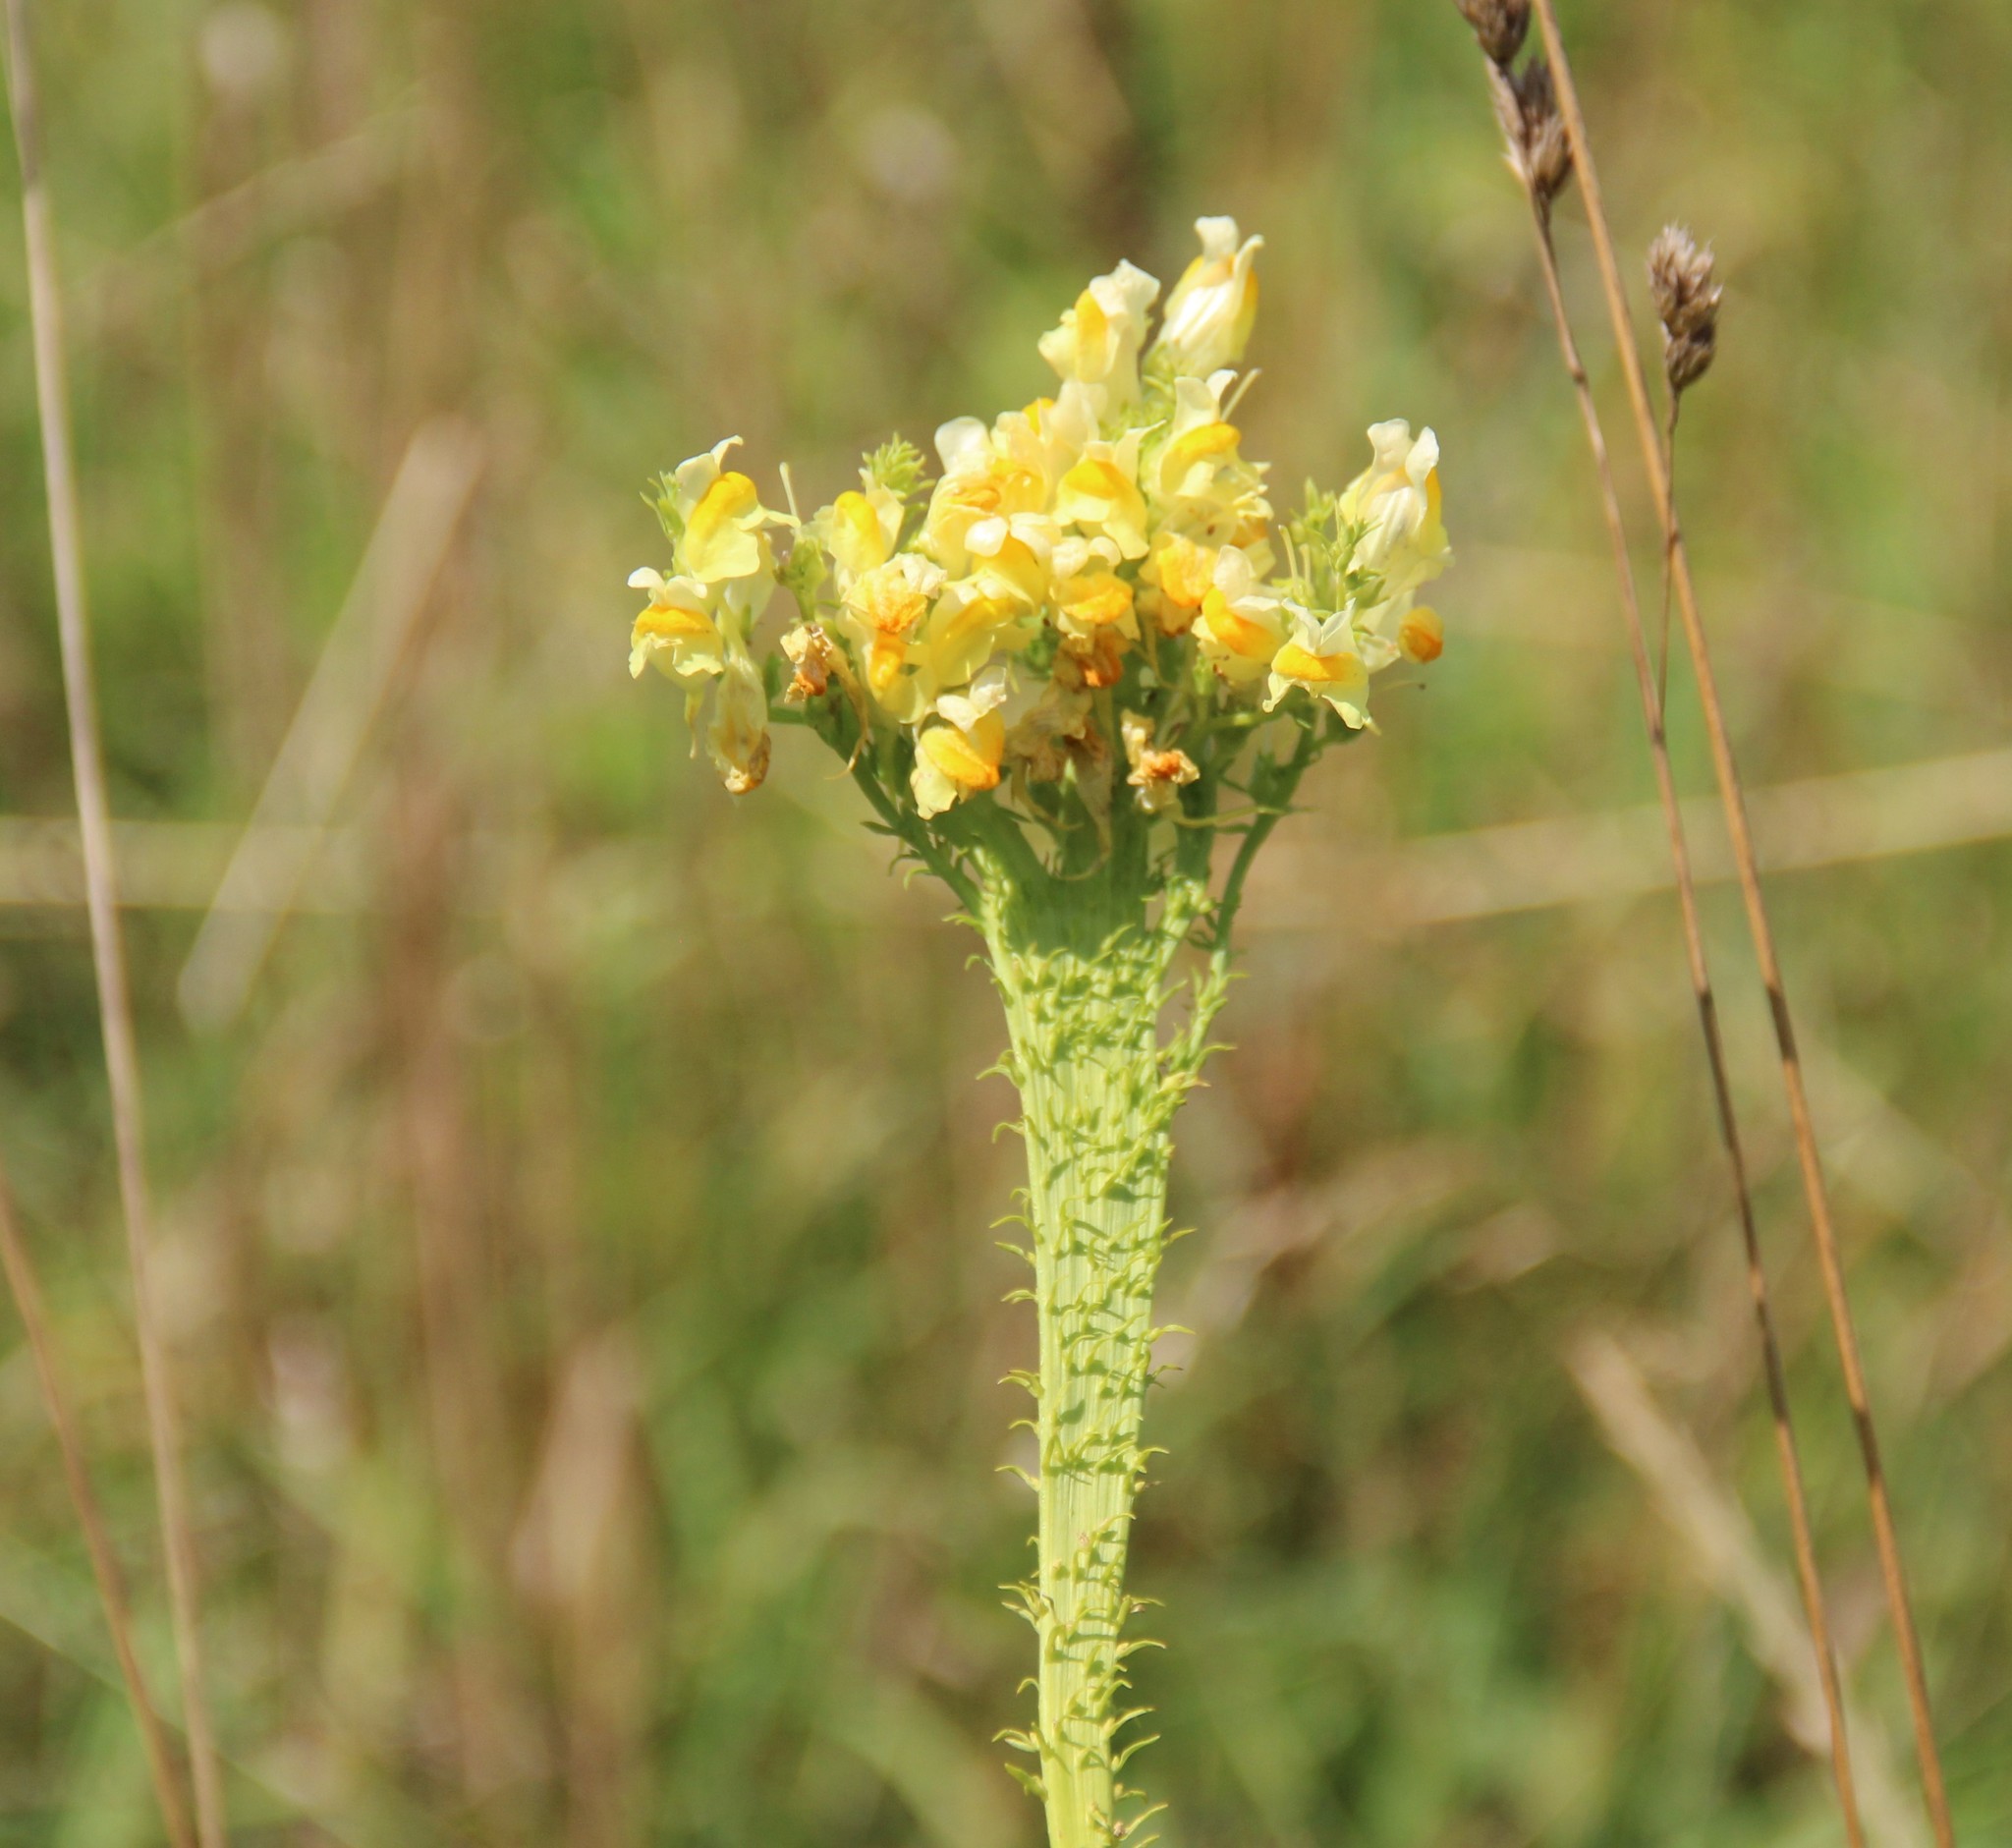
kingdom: Plantae
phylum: Tracheophyta
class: Magnoliopsida
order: Lamiales
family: Plantaginaceae
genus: Linaria
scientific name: Linaria vulgaris
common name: Butter and eggs
